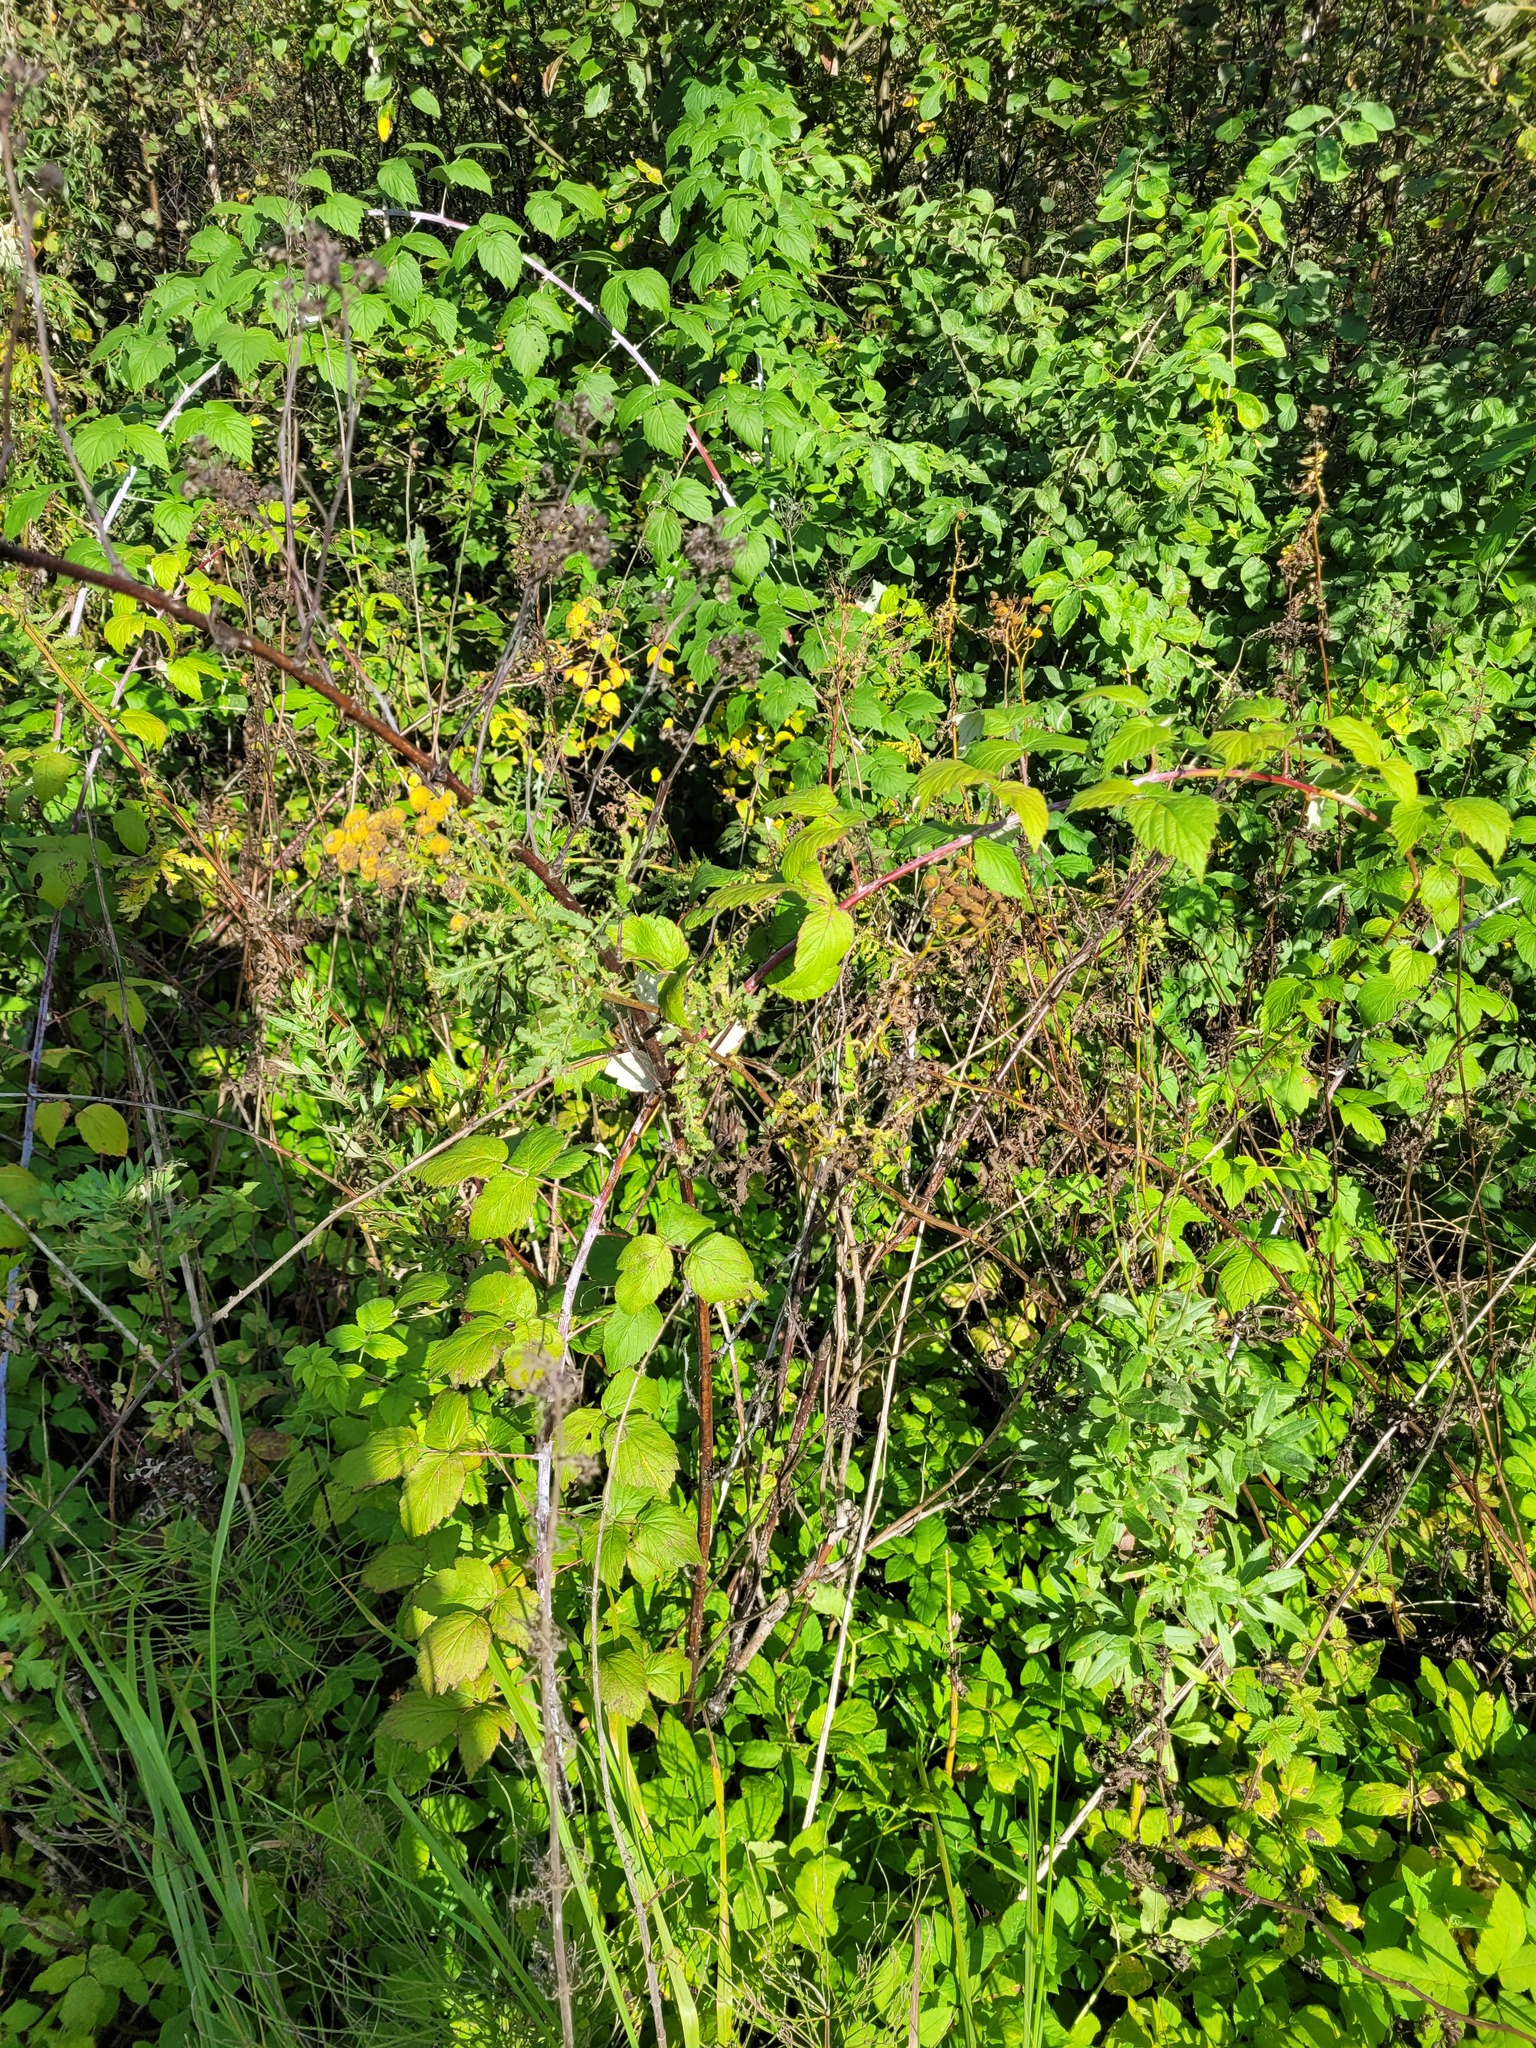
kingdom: Plantae
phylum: Tracheophyta
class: Magnoliopsida
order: Rosales
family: Rosaceae
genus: Rubus
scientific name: Rubus occidentalis
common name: Black raspberry
